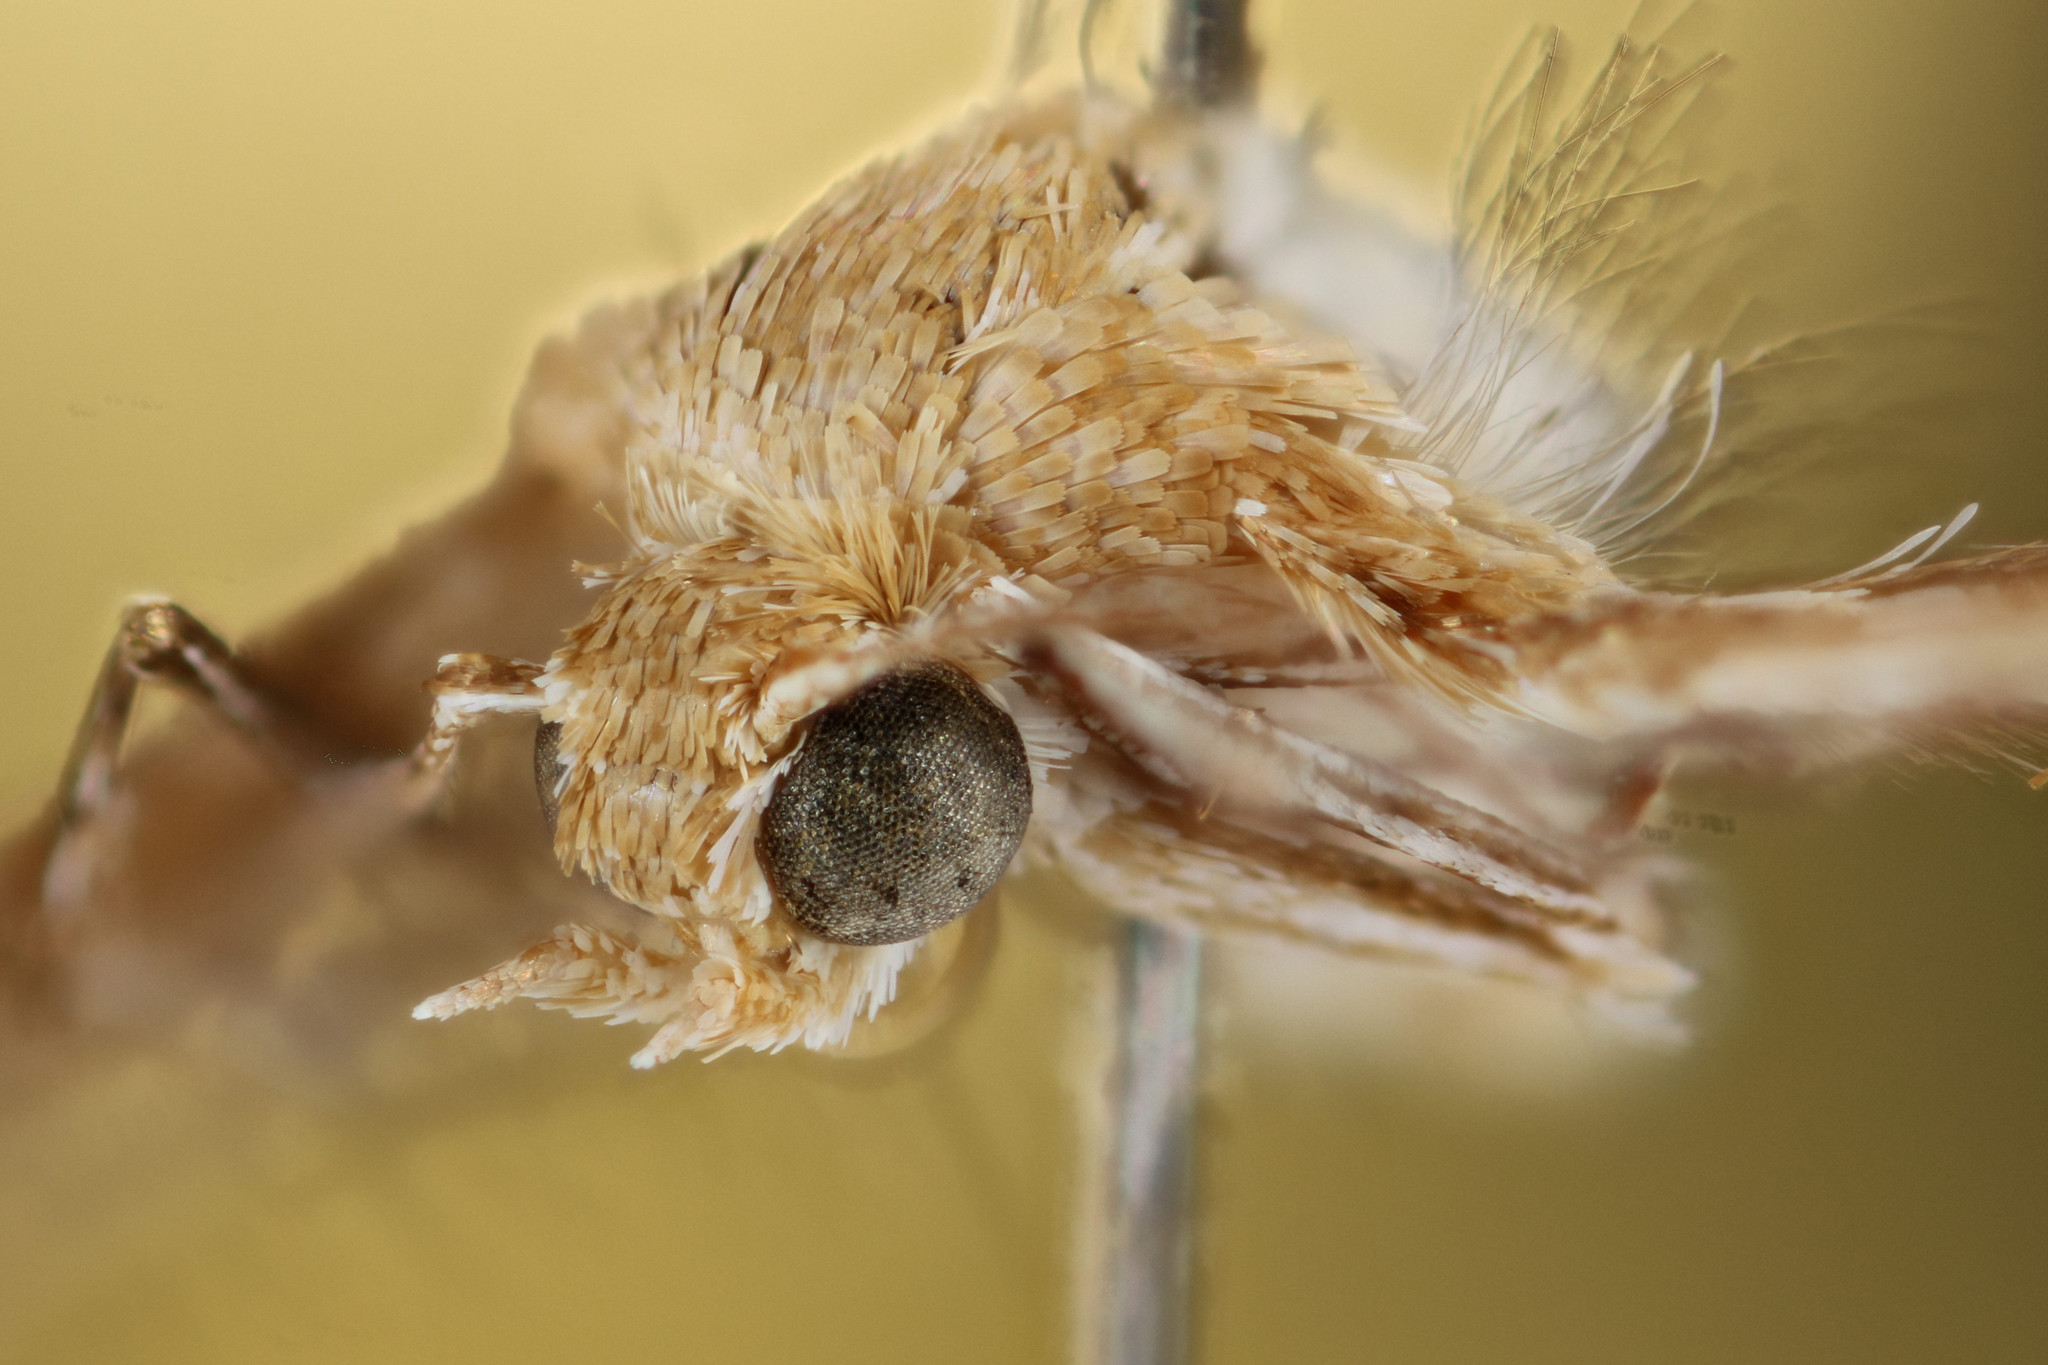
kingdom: Animalia
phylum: Arthropoda
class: Insecta
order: Lepidoptera
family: Pterophoridae
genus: Megalorhipida
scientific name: Megalorhipida leucodactylus
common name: Plume moth
